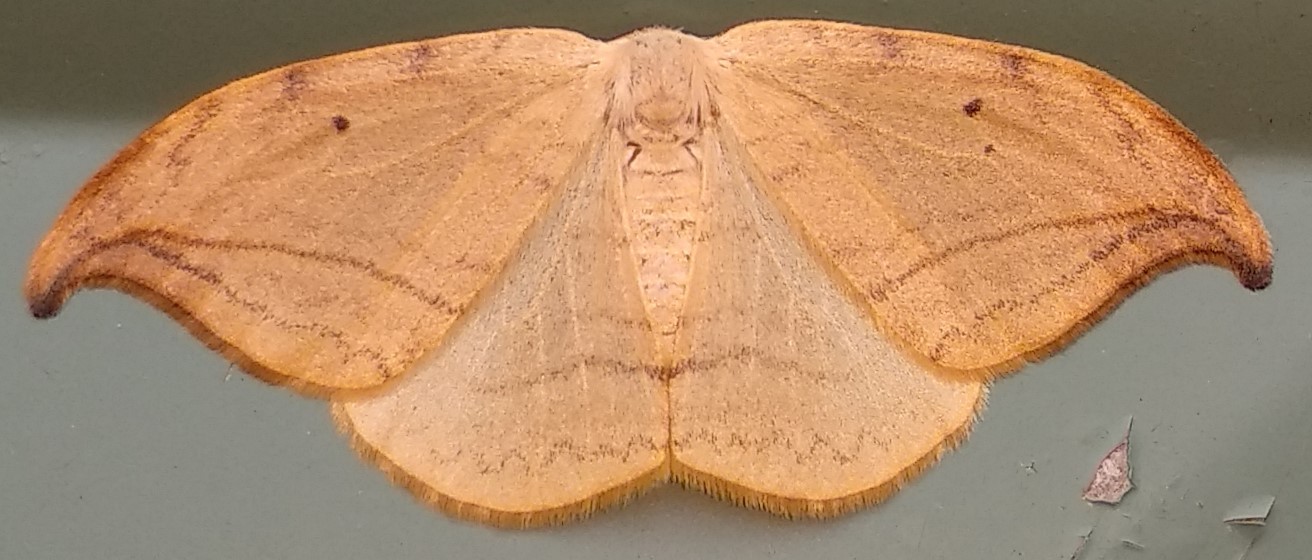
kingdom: Animalia
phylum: Arthropoda
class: Insecta
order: Lepidoptera
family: Drepanidae
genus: Drepana
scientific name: Drepana arcuata
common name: Arched hooktip moth
